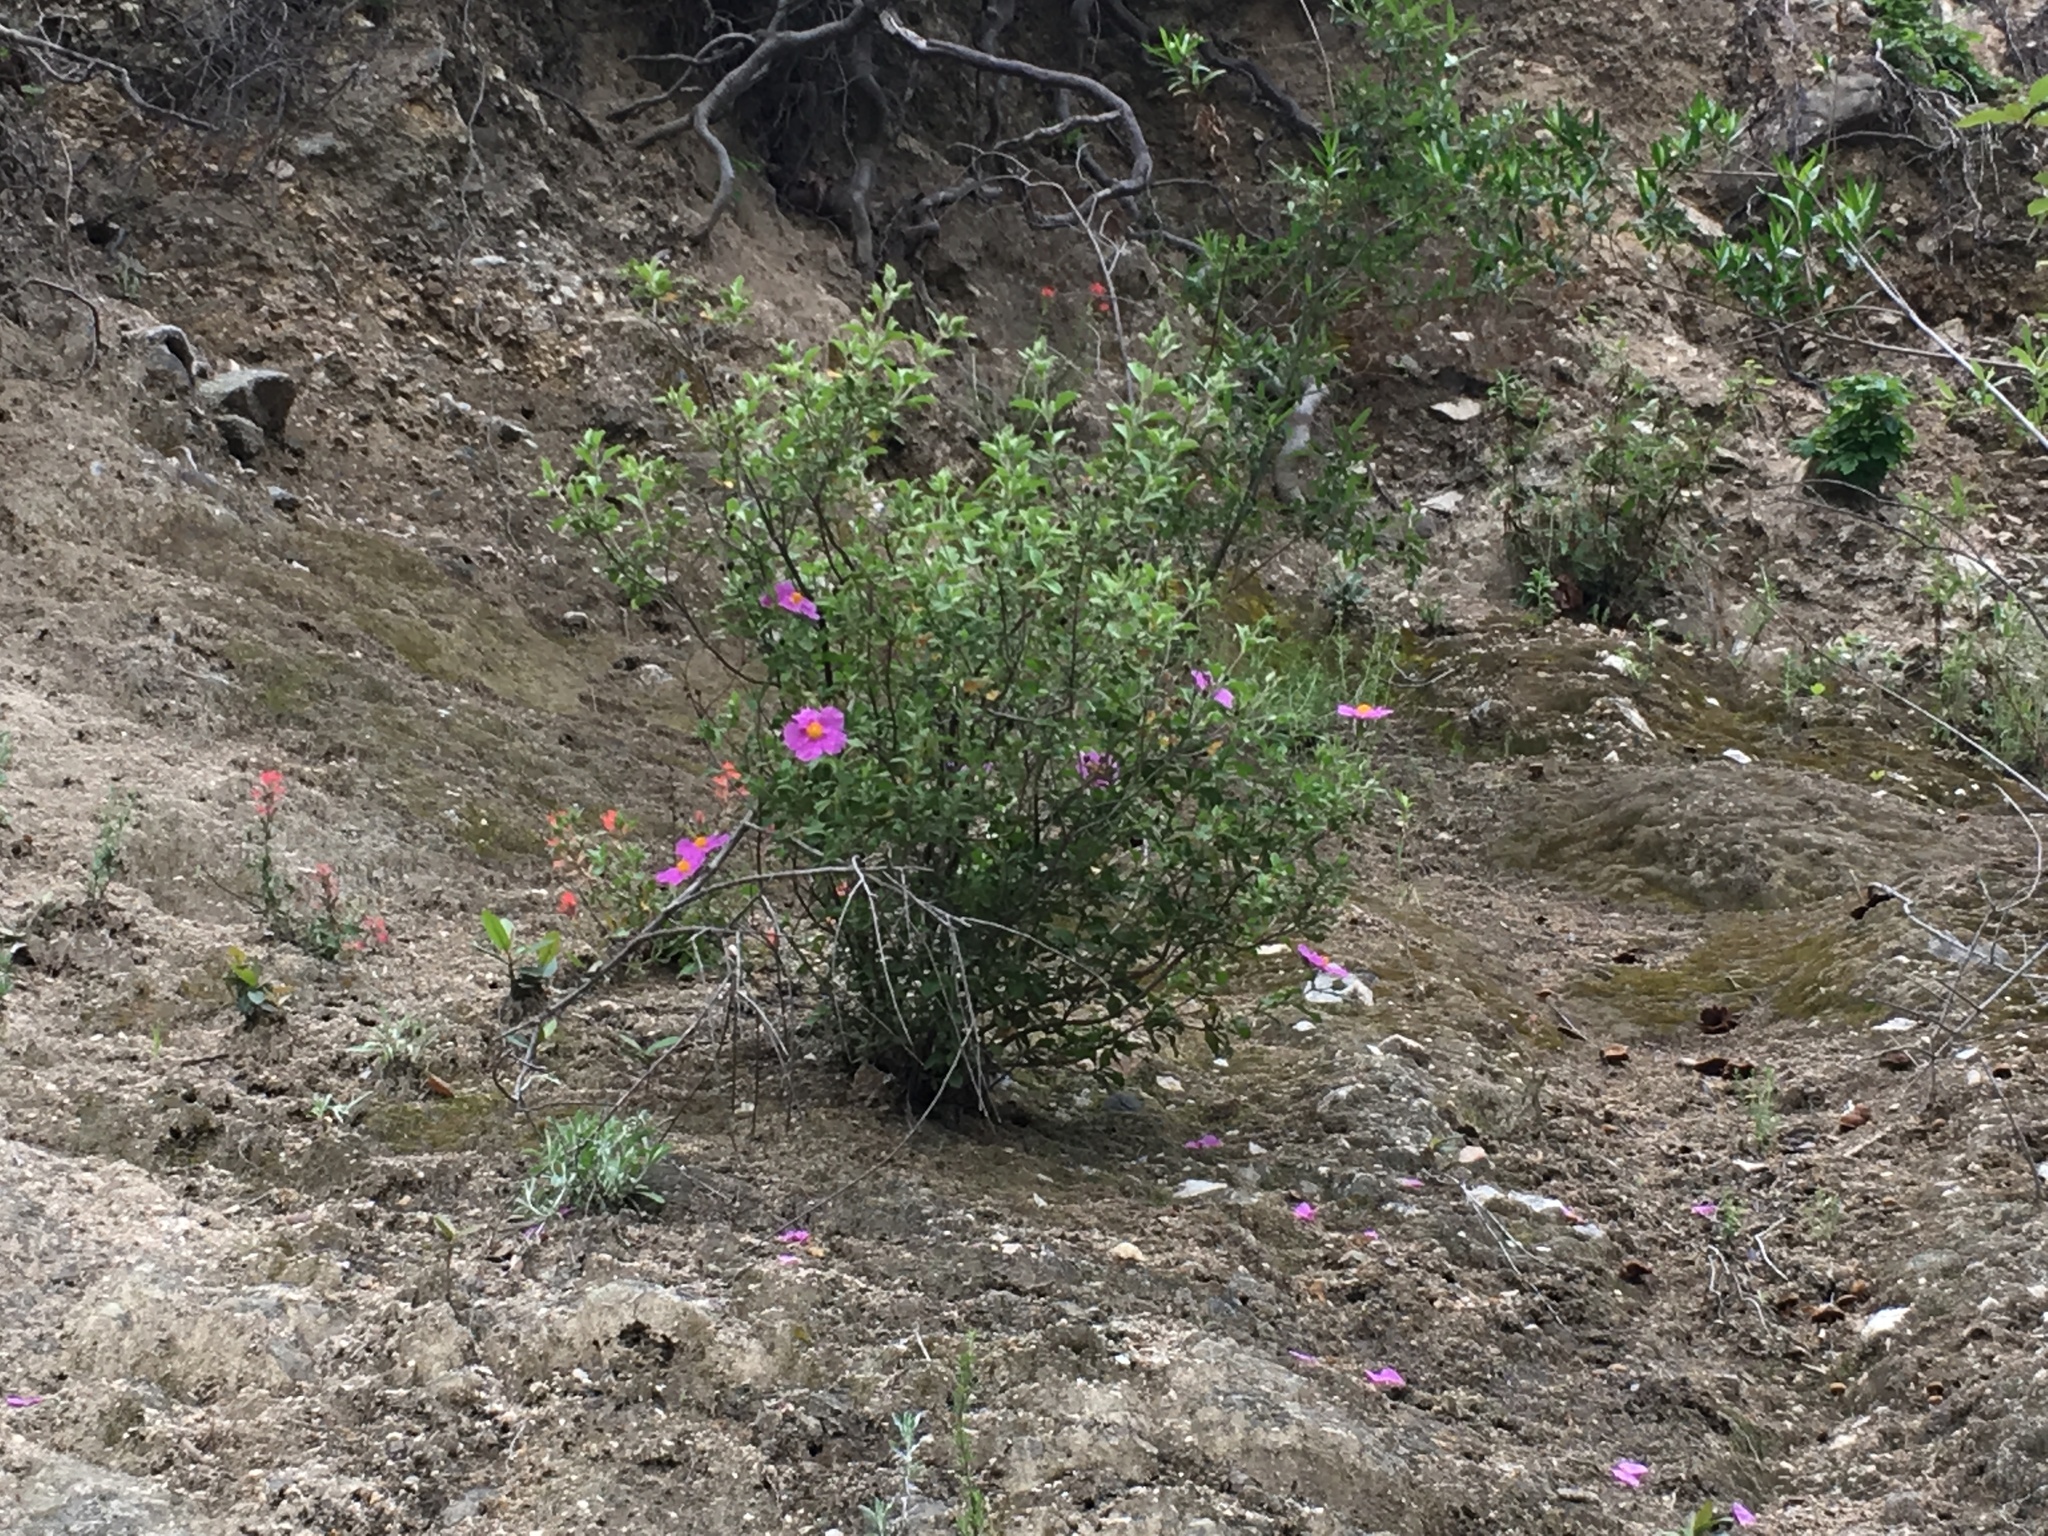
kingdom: Plantae
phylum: Tracheophyta
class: Magnoliopsida
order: Malvales
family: Cistaceae
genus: Cistus
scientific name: Cistus creticus
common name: Cretan rockrose
